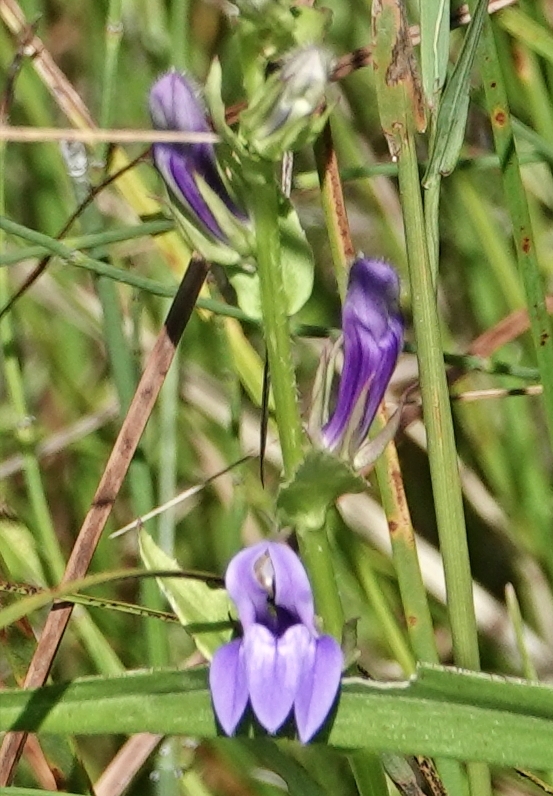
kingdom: Plantae
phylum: Tracheophyta
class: Magnoliopsida
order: Asterales
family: Campanulaceae
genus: Lobelia
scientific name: Lobelia siphilitica
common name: Great lobelia
